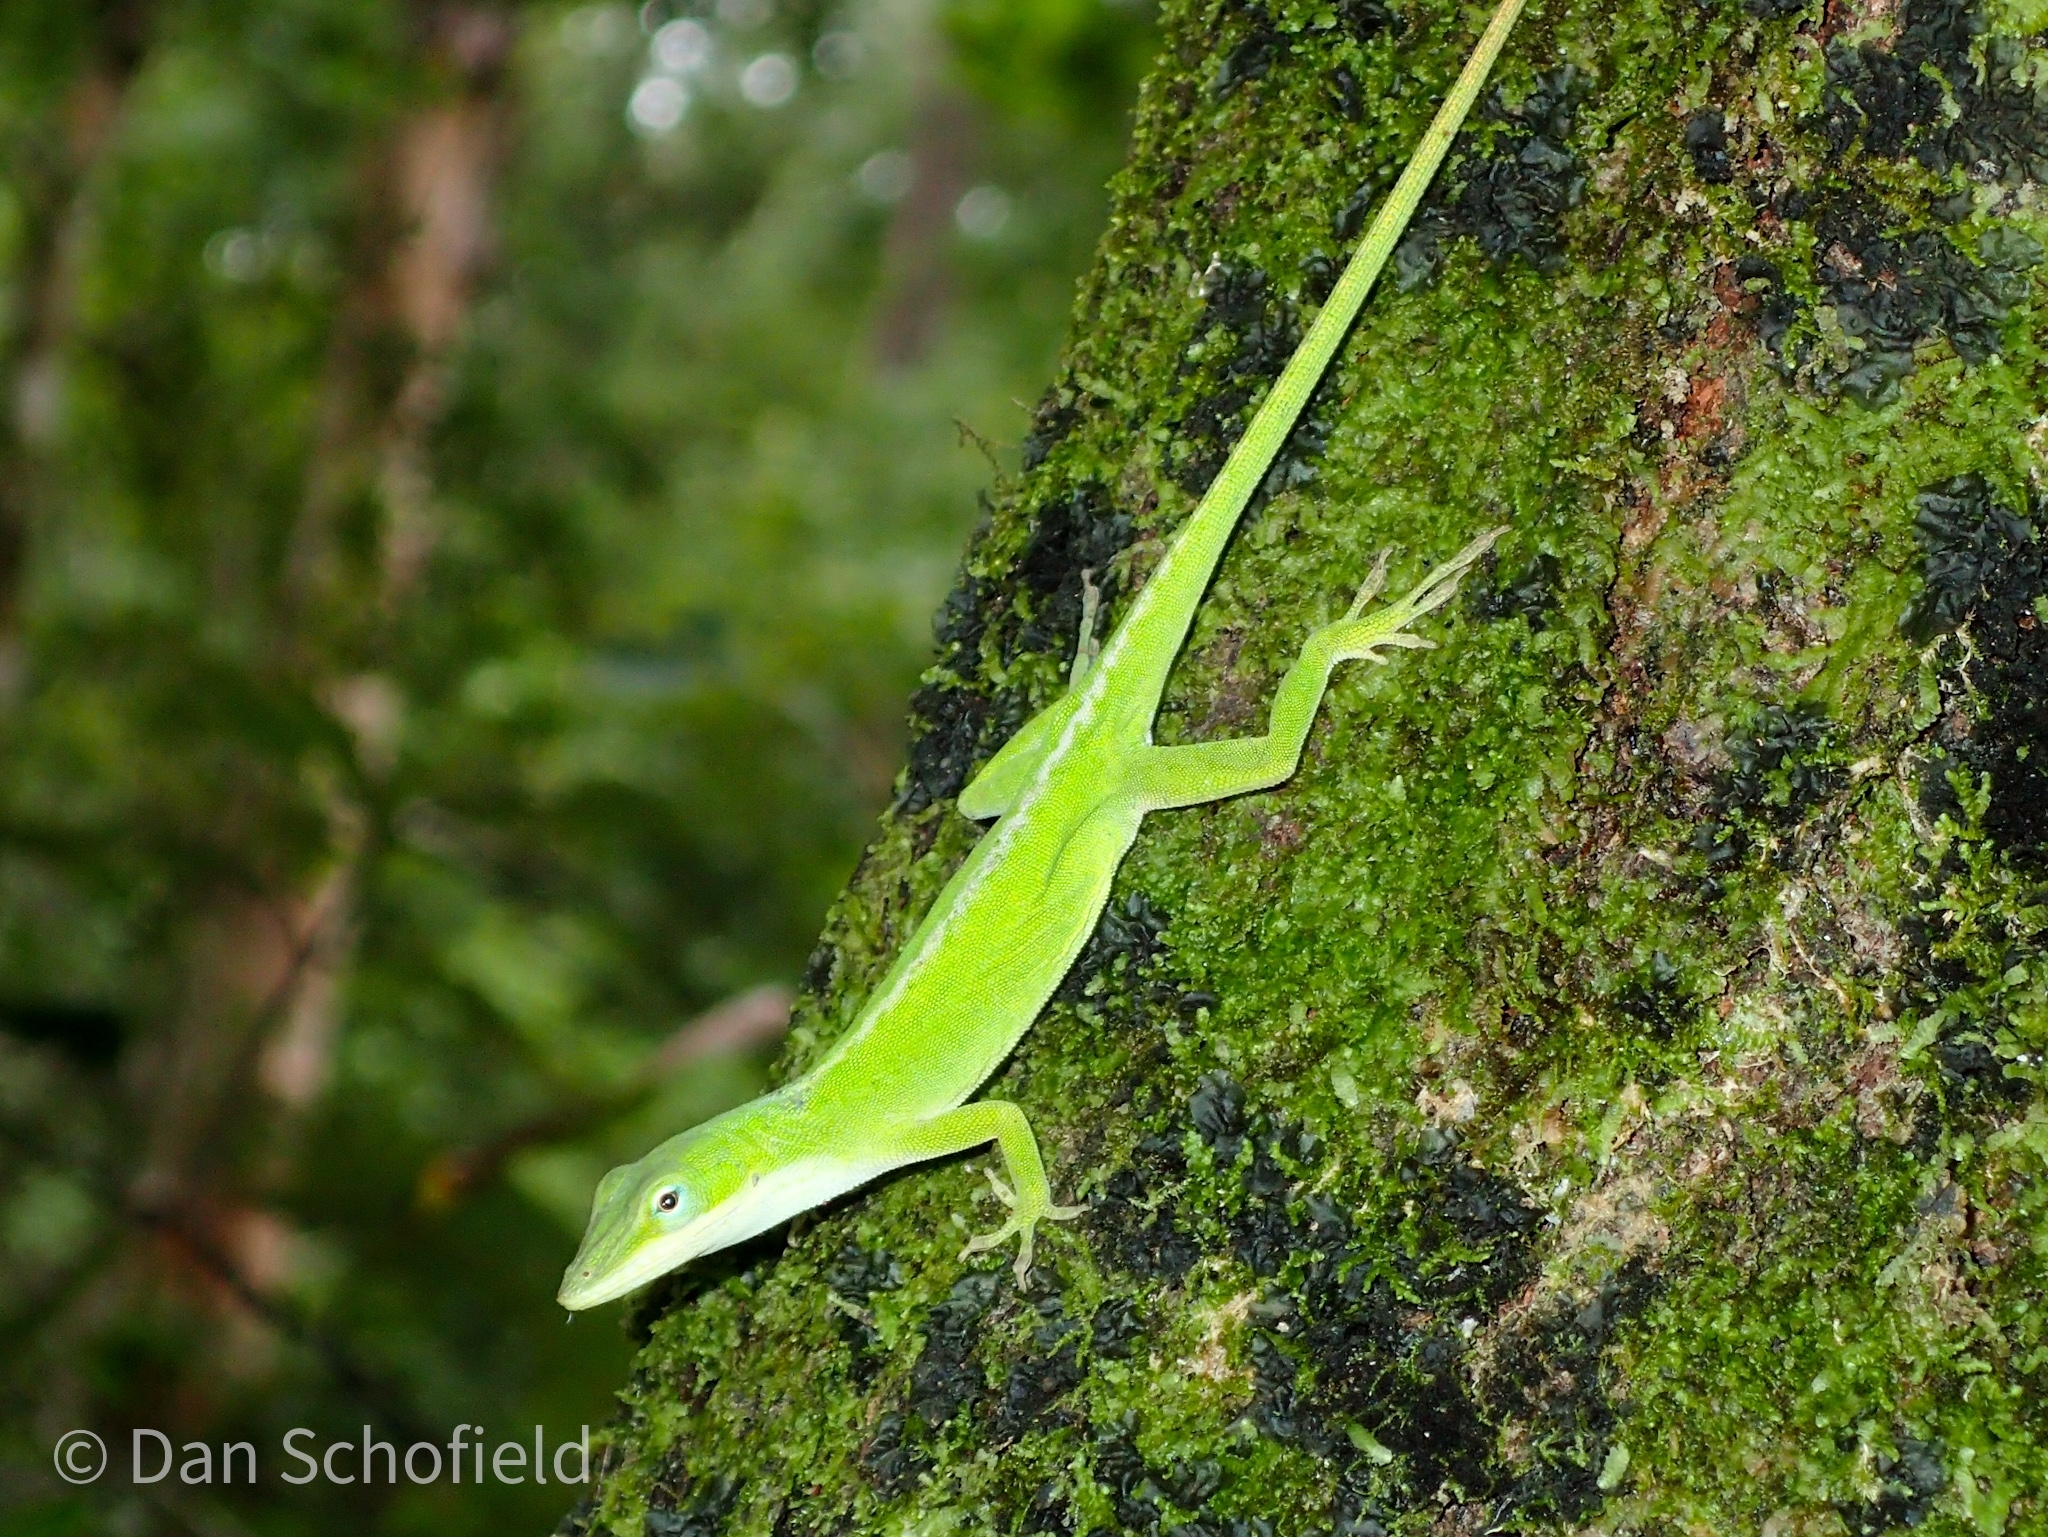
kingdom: Animalia
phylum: Chordata
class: Squamata
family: Dactyloidae
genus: Anolis
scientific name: Anolis carolinensis
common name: Green anole
